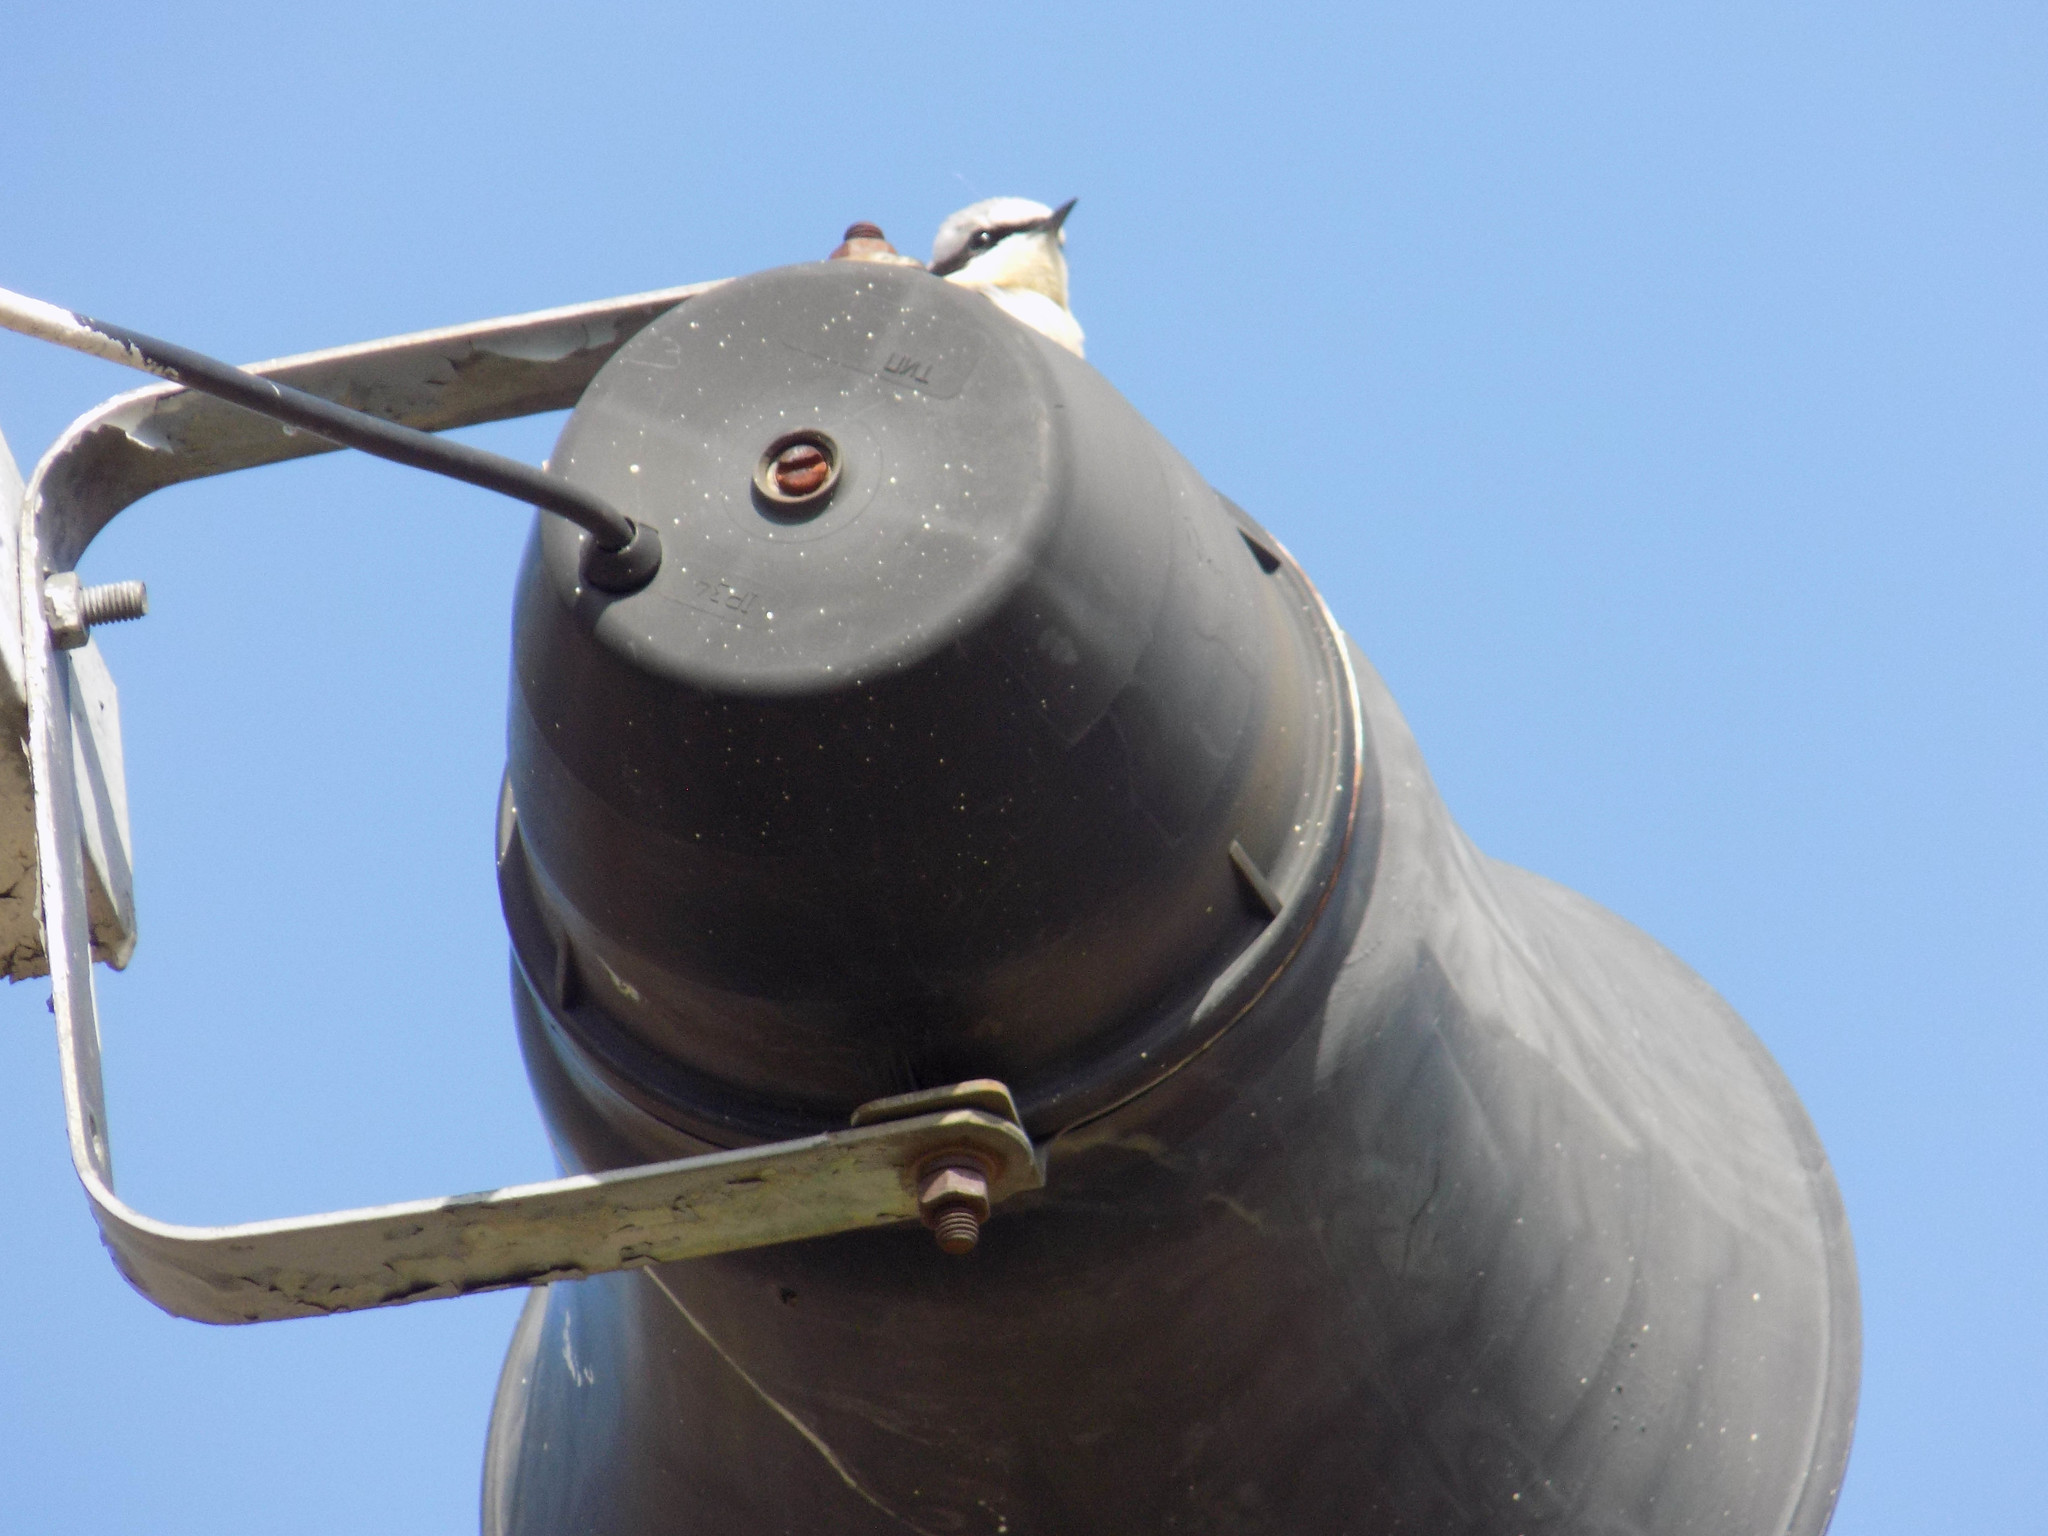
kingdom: Animalia
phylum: Chordata
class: Aves
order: Passeriformes
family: Muscicapidae
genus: Oenanthe
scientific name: Oenanthe oenanthe
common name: Northern wheatear
